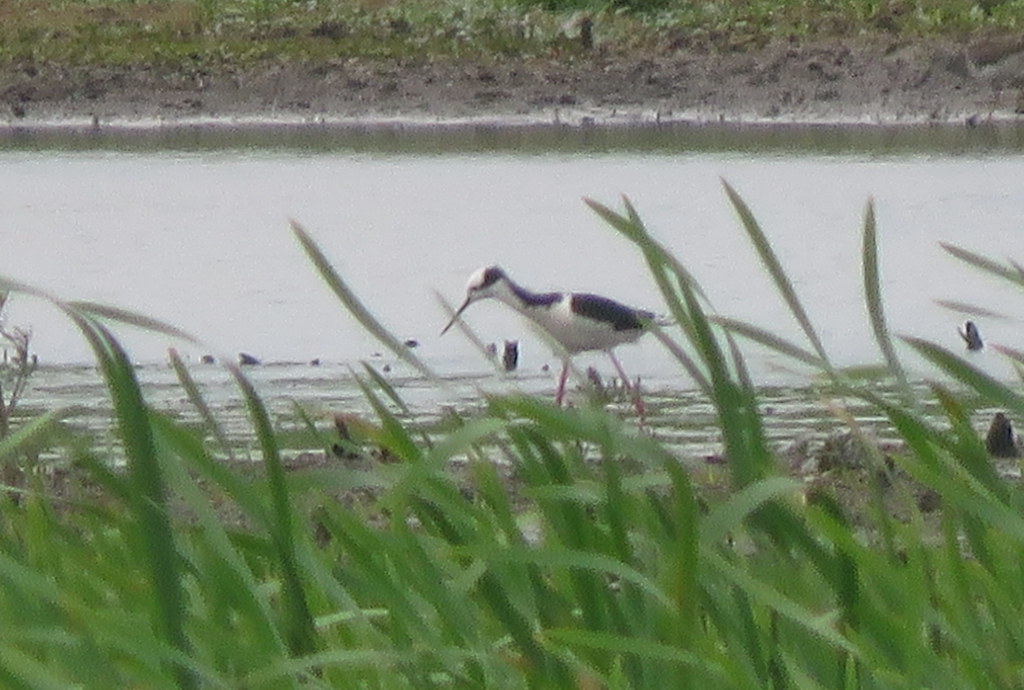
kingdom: Animalia
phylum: Chordata
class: Aves
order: Charadriiformes
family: Recurvirostridae
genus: Himantopus
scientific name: Himantopus mexicanus
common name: Black-necked stilt
